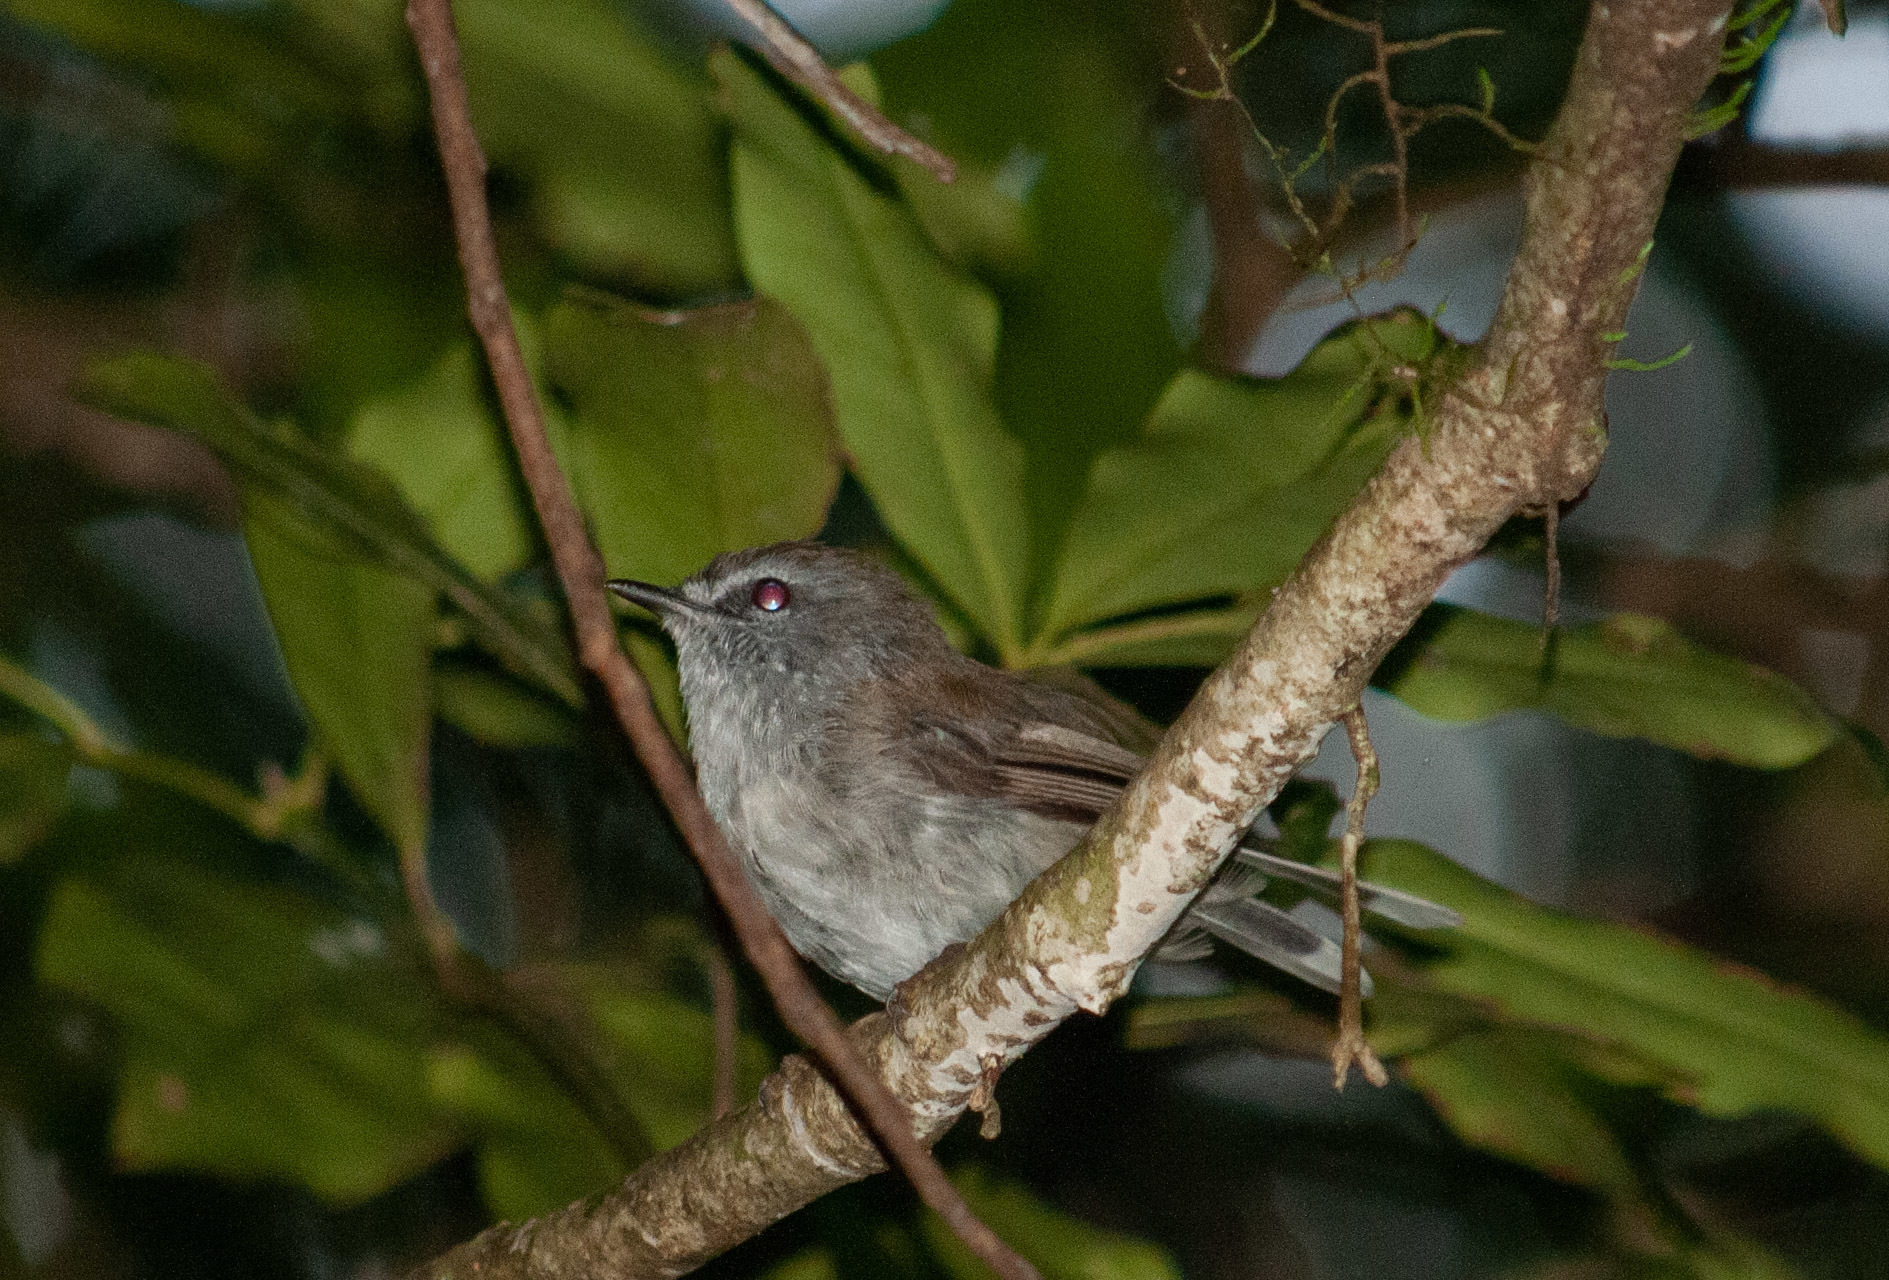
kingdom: Animalia
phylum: Chordata
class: Aves
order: Passeriformes
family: Acanthizidae
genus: Gerygone
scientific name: Gerygone mouki
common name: Brown gerygone
